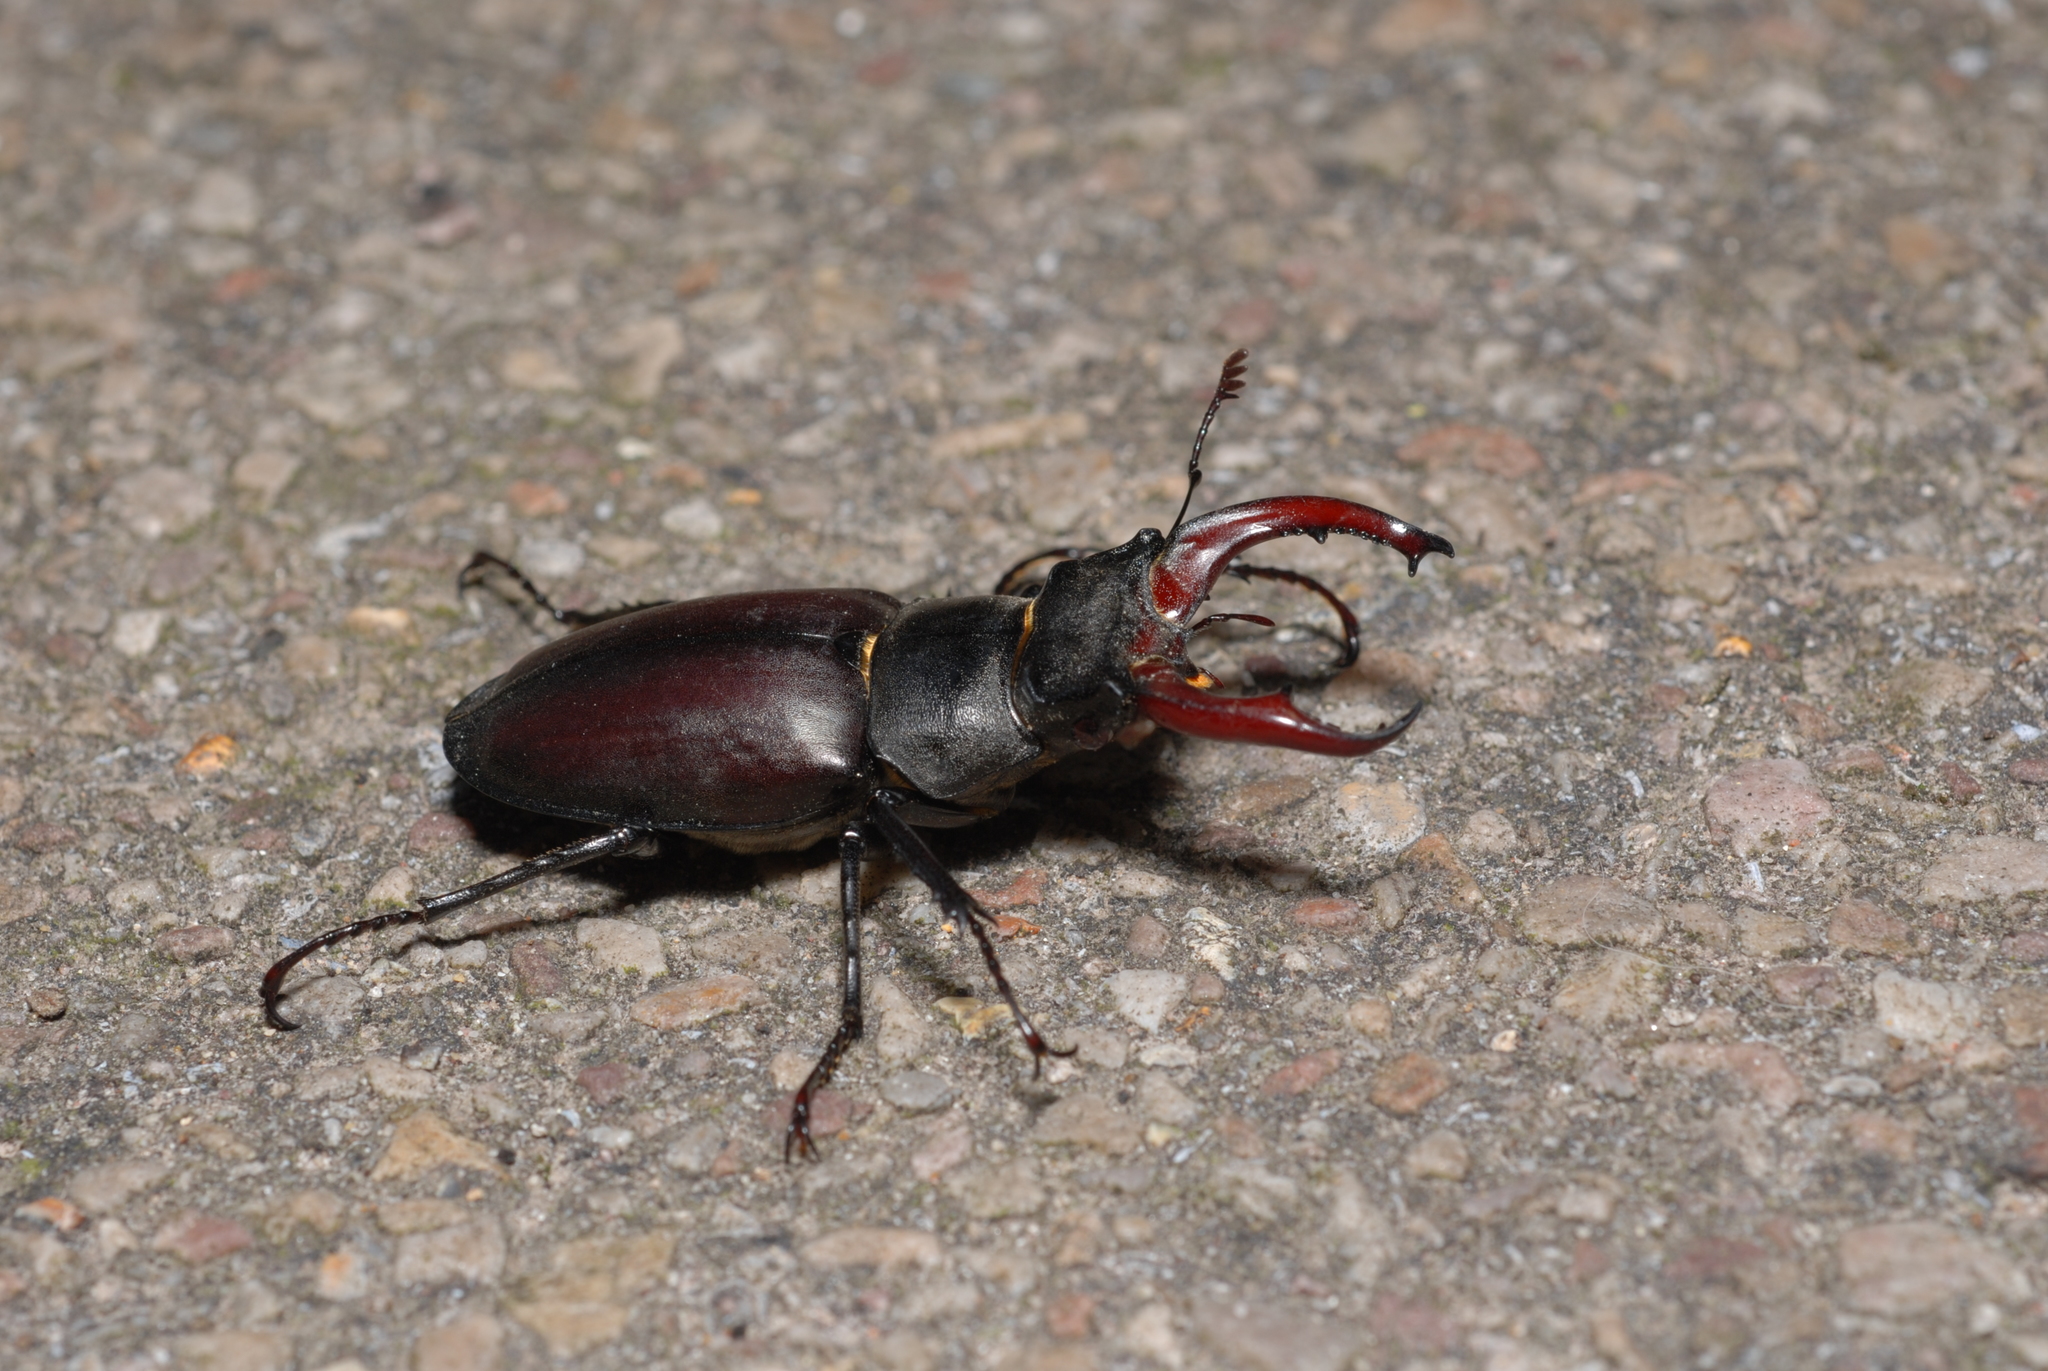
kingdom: Animalia
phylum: Arthropoda
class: Insecta
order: Coleoptera
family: Lucanidae
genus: Lucanus
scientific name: Lucanus cervus
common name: Stag beetle
